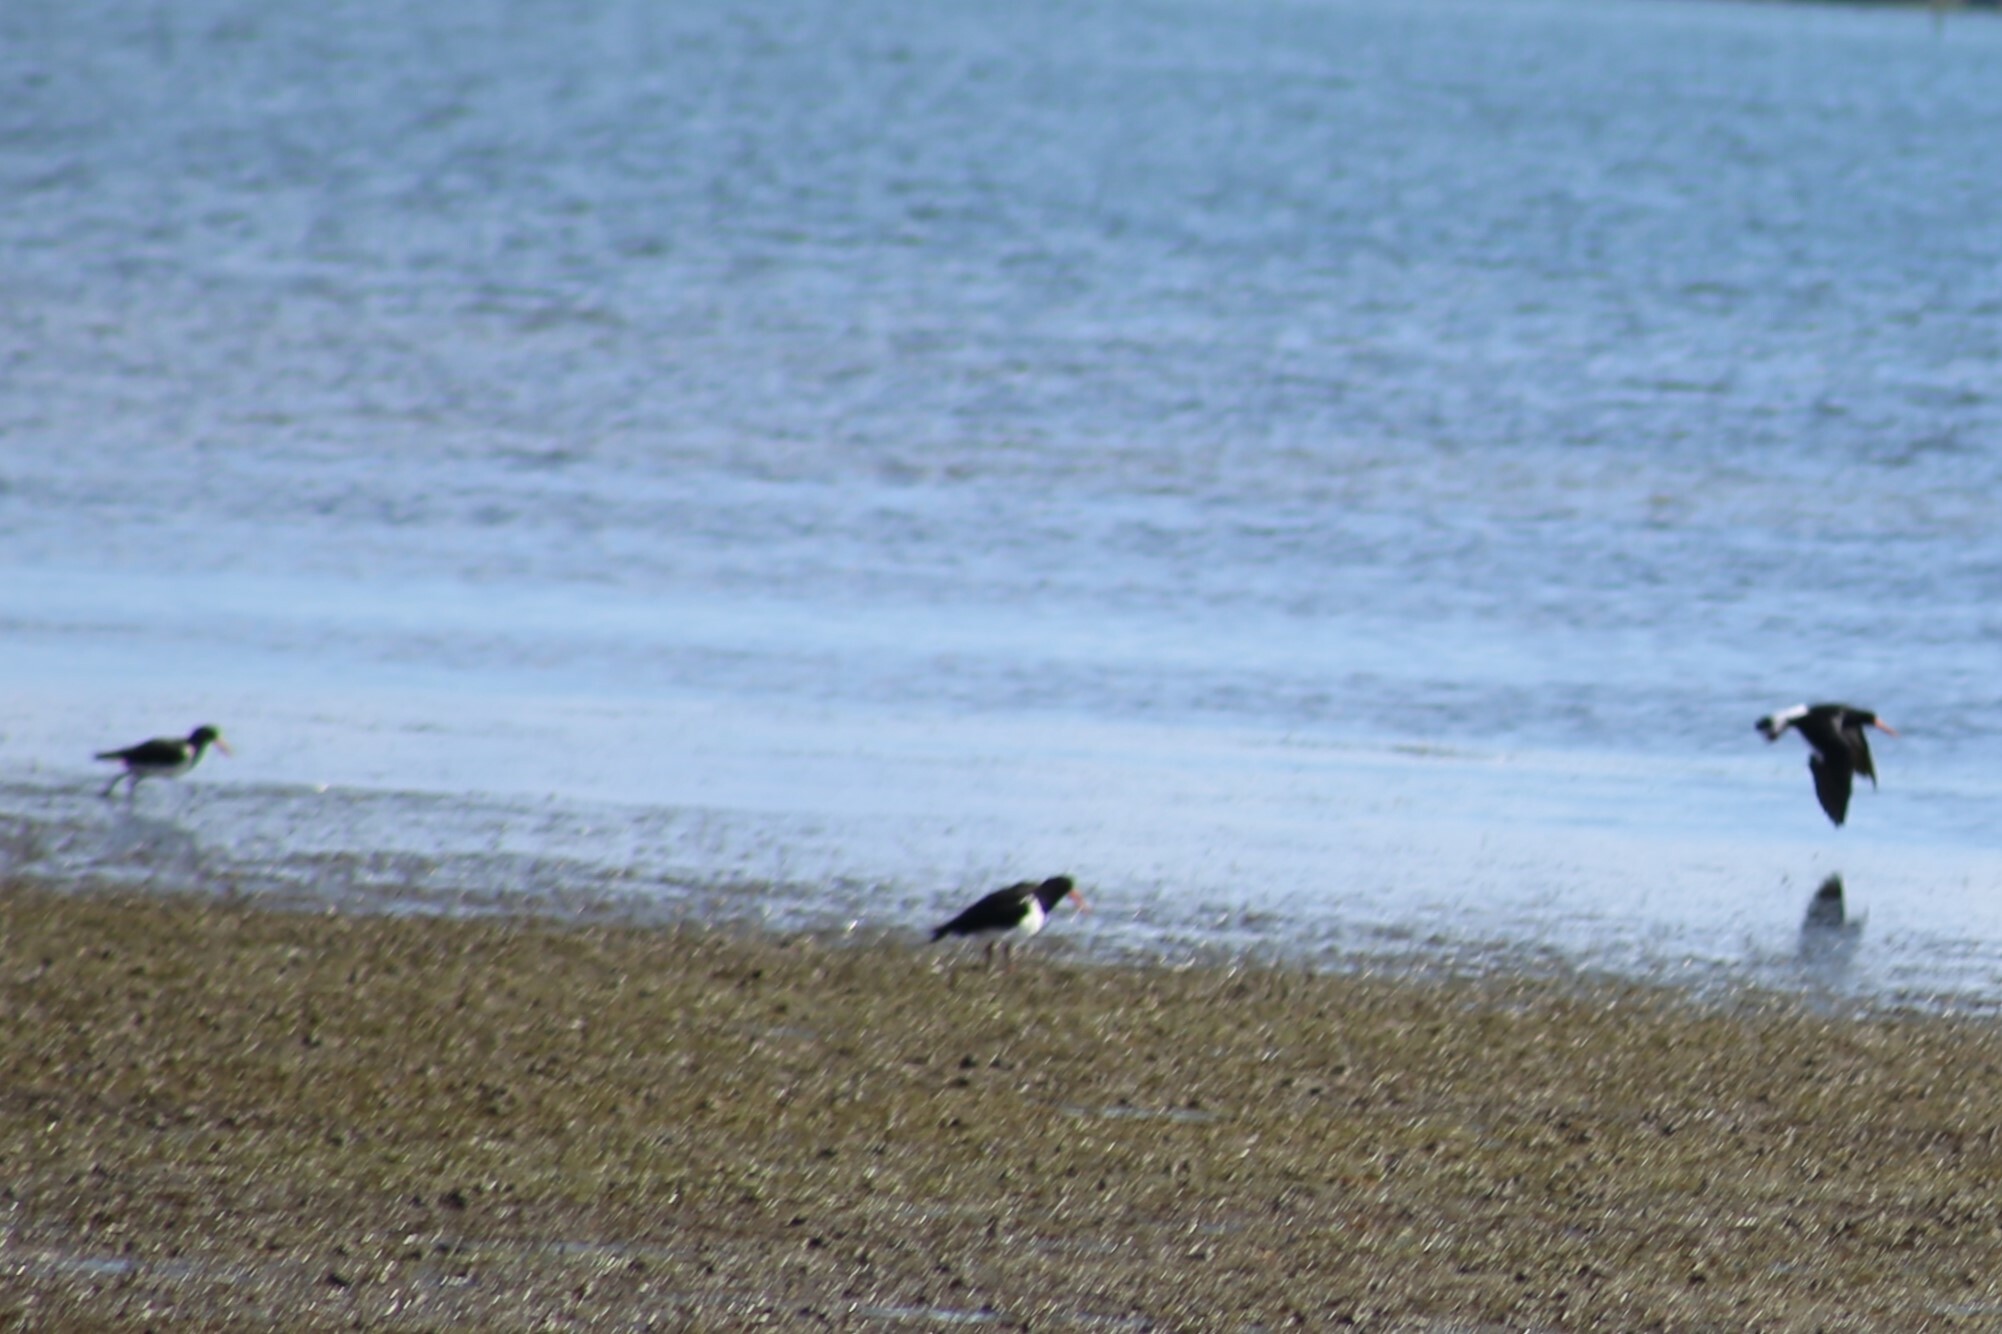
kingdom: Animalia
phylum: Chordata
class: Aves
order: Charadriiformes
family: Haematopodidae
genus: Haematopus
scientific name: Haematopus longirostris
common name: Pied oystercatcher
